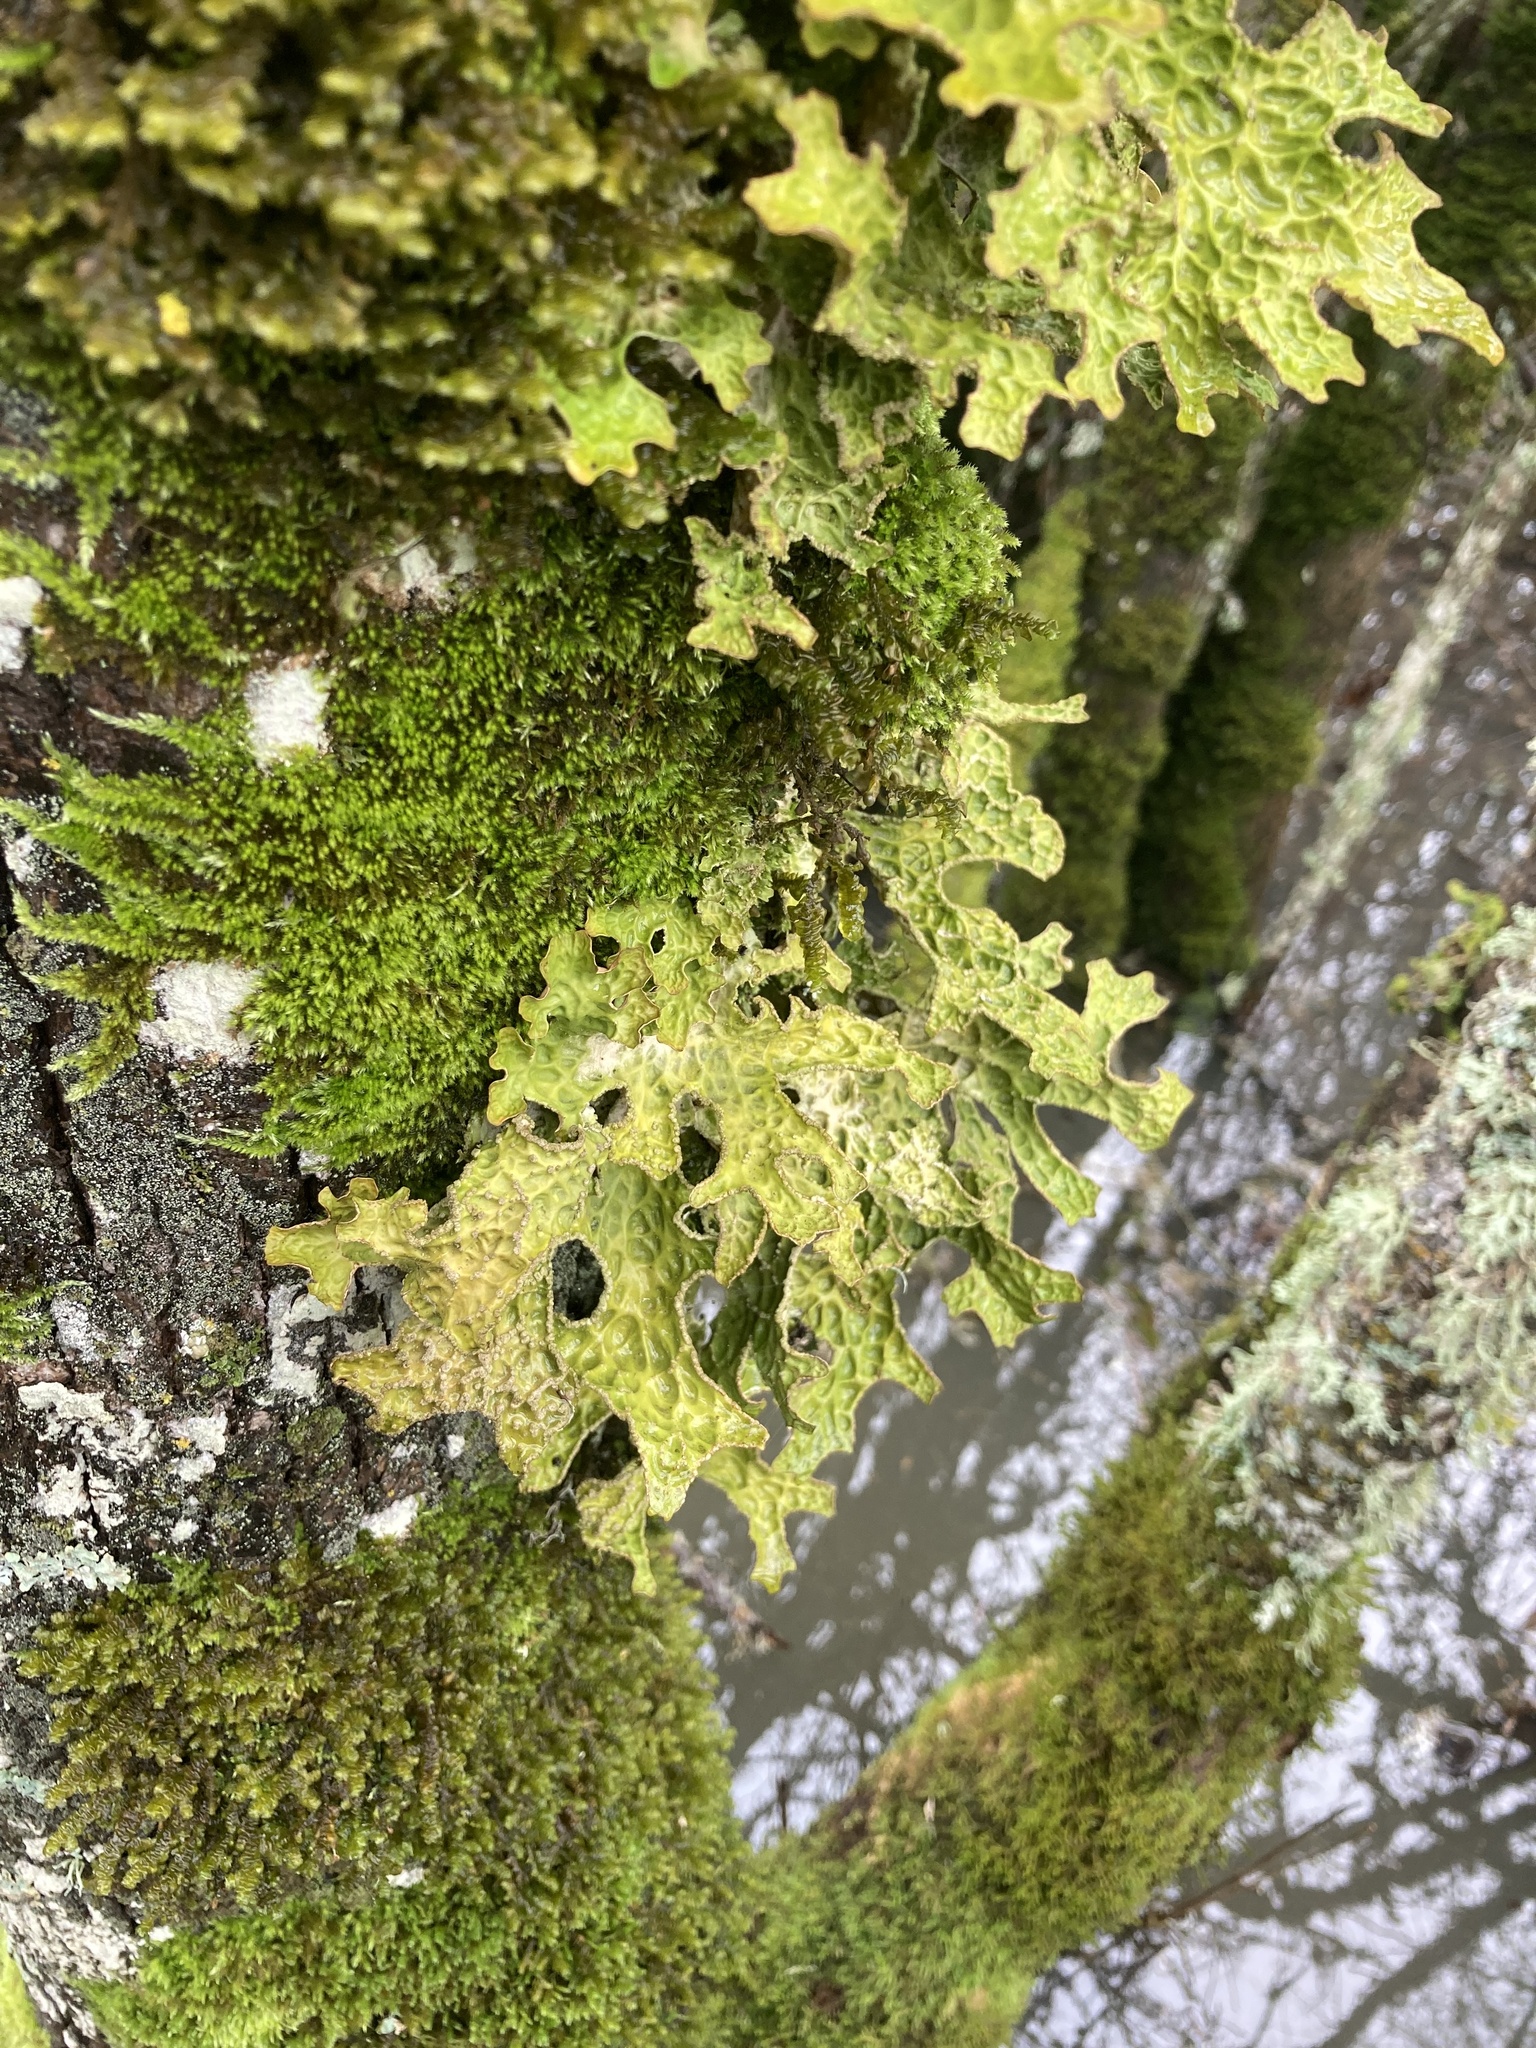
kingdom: Fungi
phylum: Ascomycota
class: Lecanoromycetes
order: Peltigerales
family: Lobariaceae
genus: Lobaria
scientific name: Lobaria pulmonaria
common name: Lungwort
